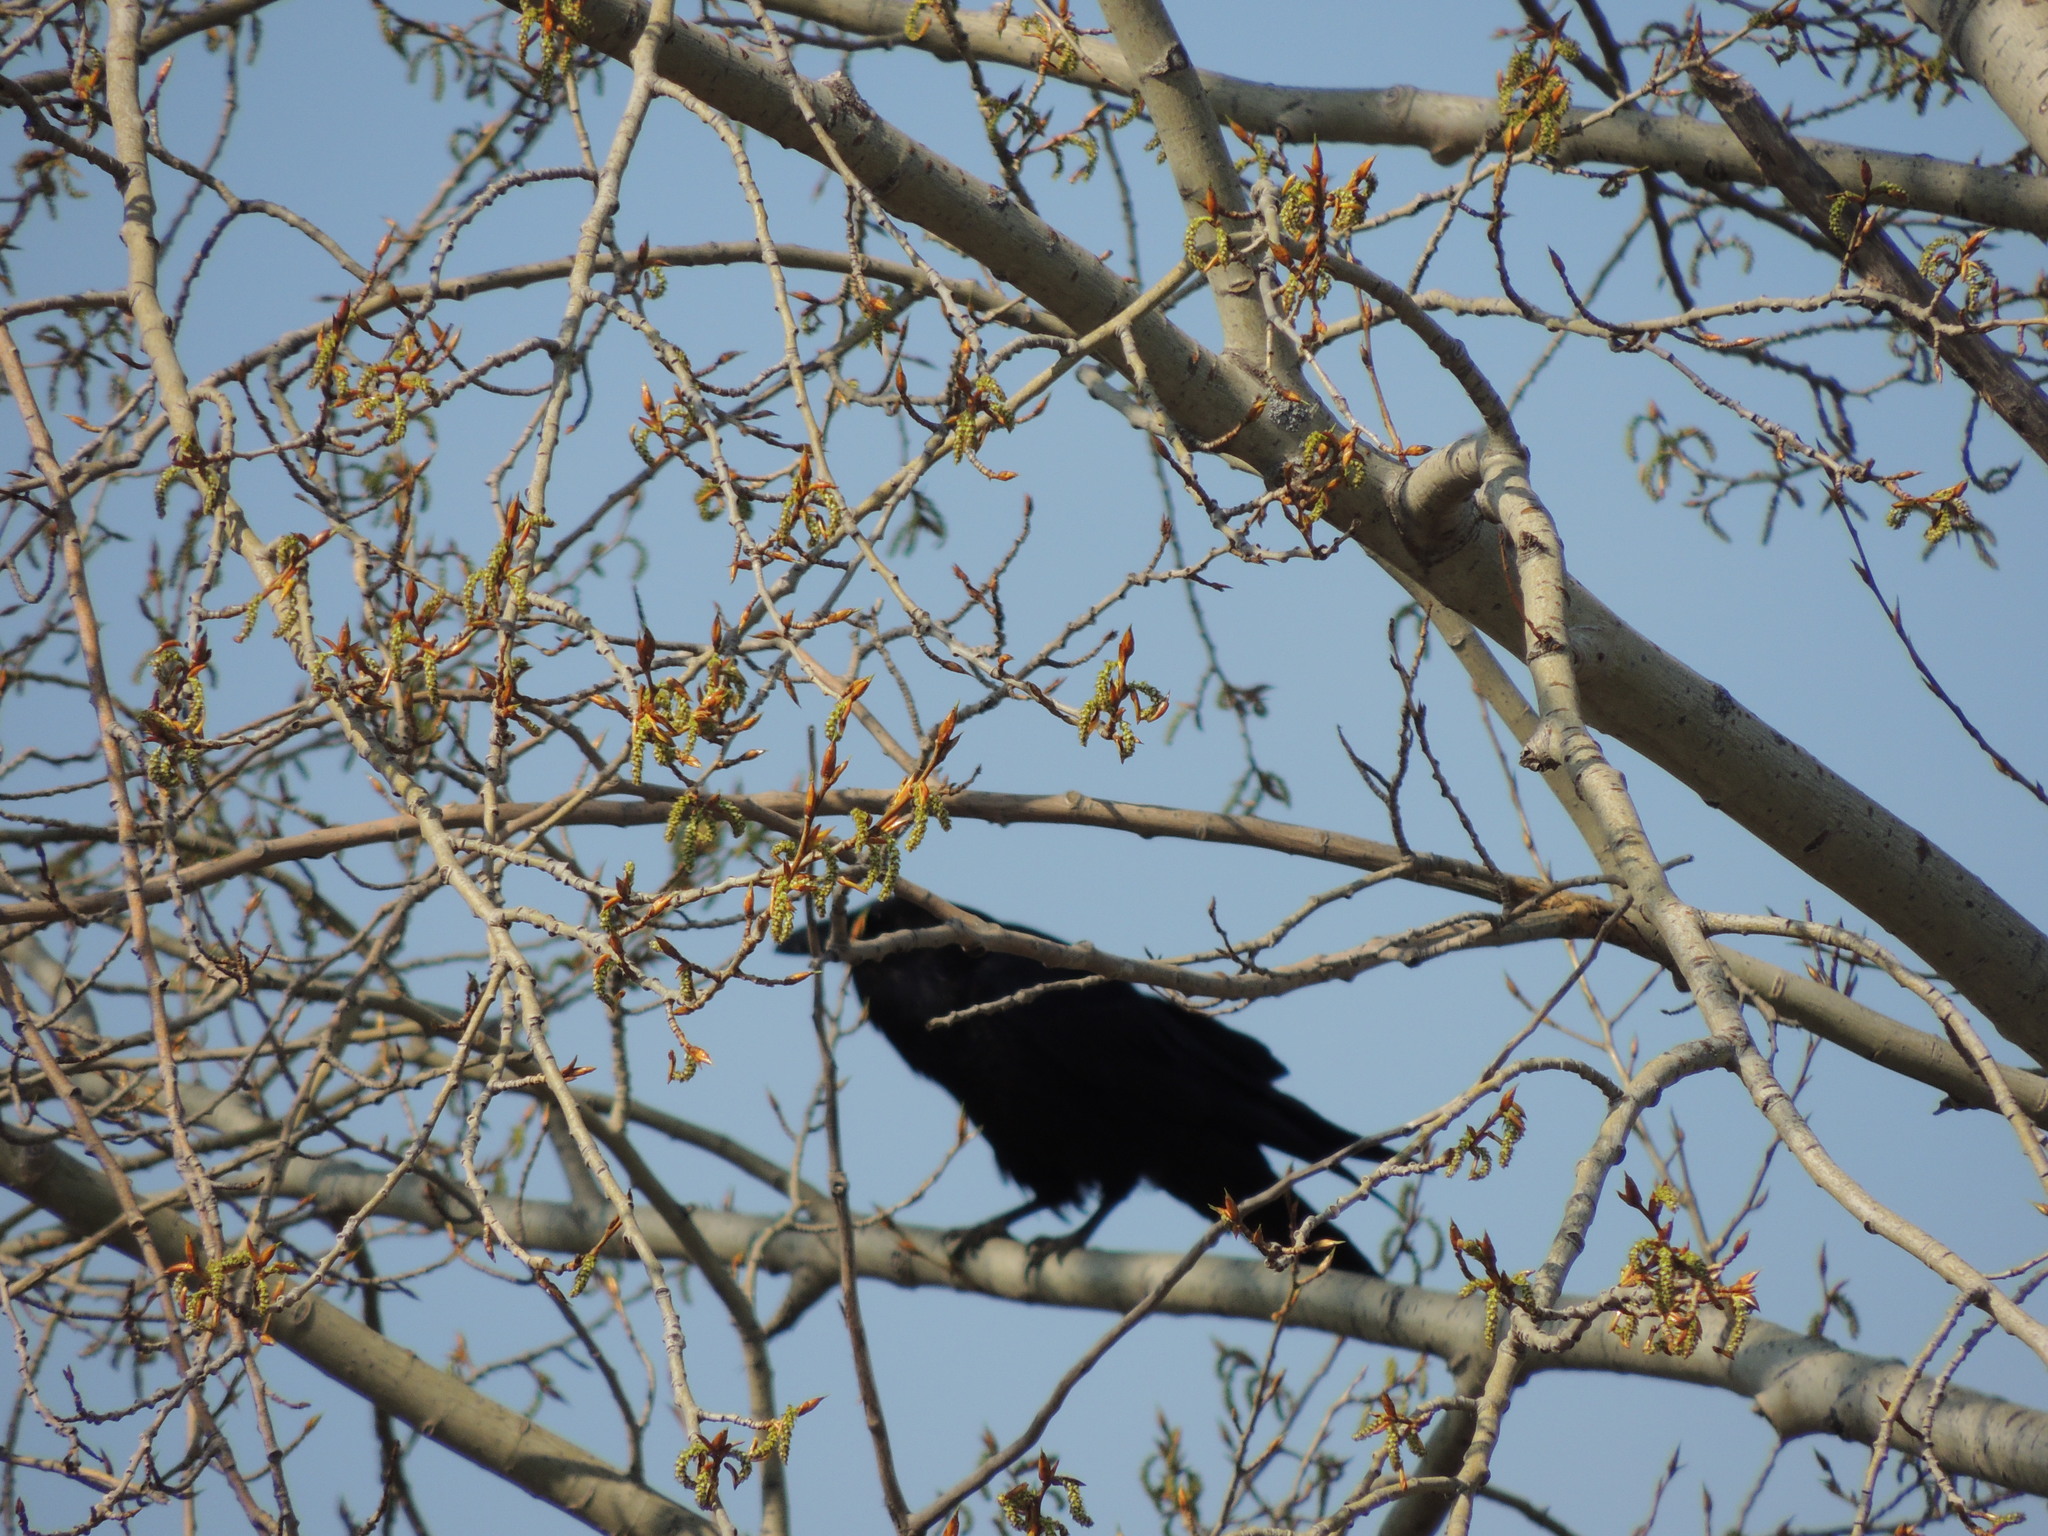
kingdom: Animalia
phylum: Chordata
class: Aves
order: Passeriformes
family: Corvidae
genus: Corvus
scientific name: Corvus corax
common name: Common raven
